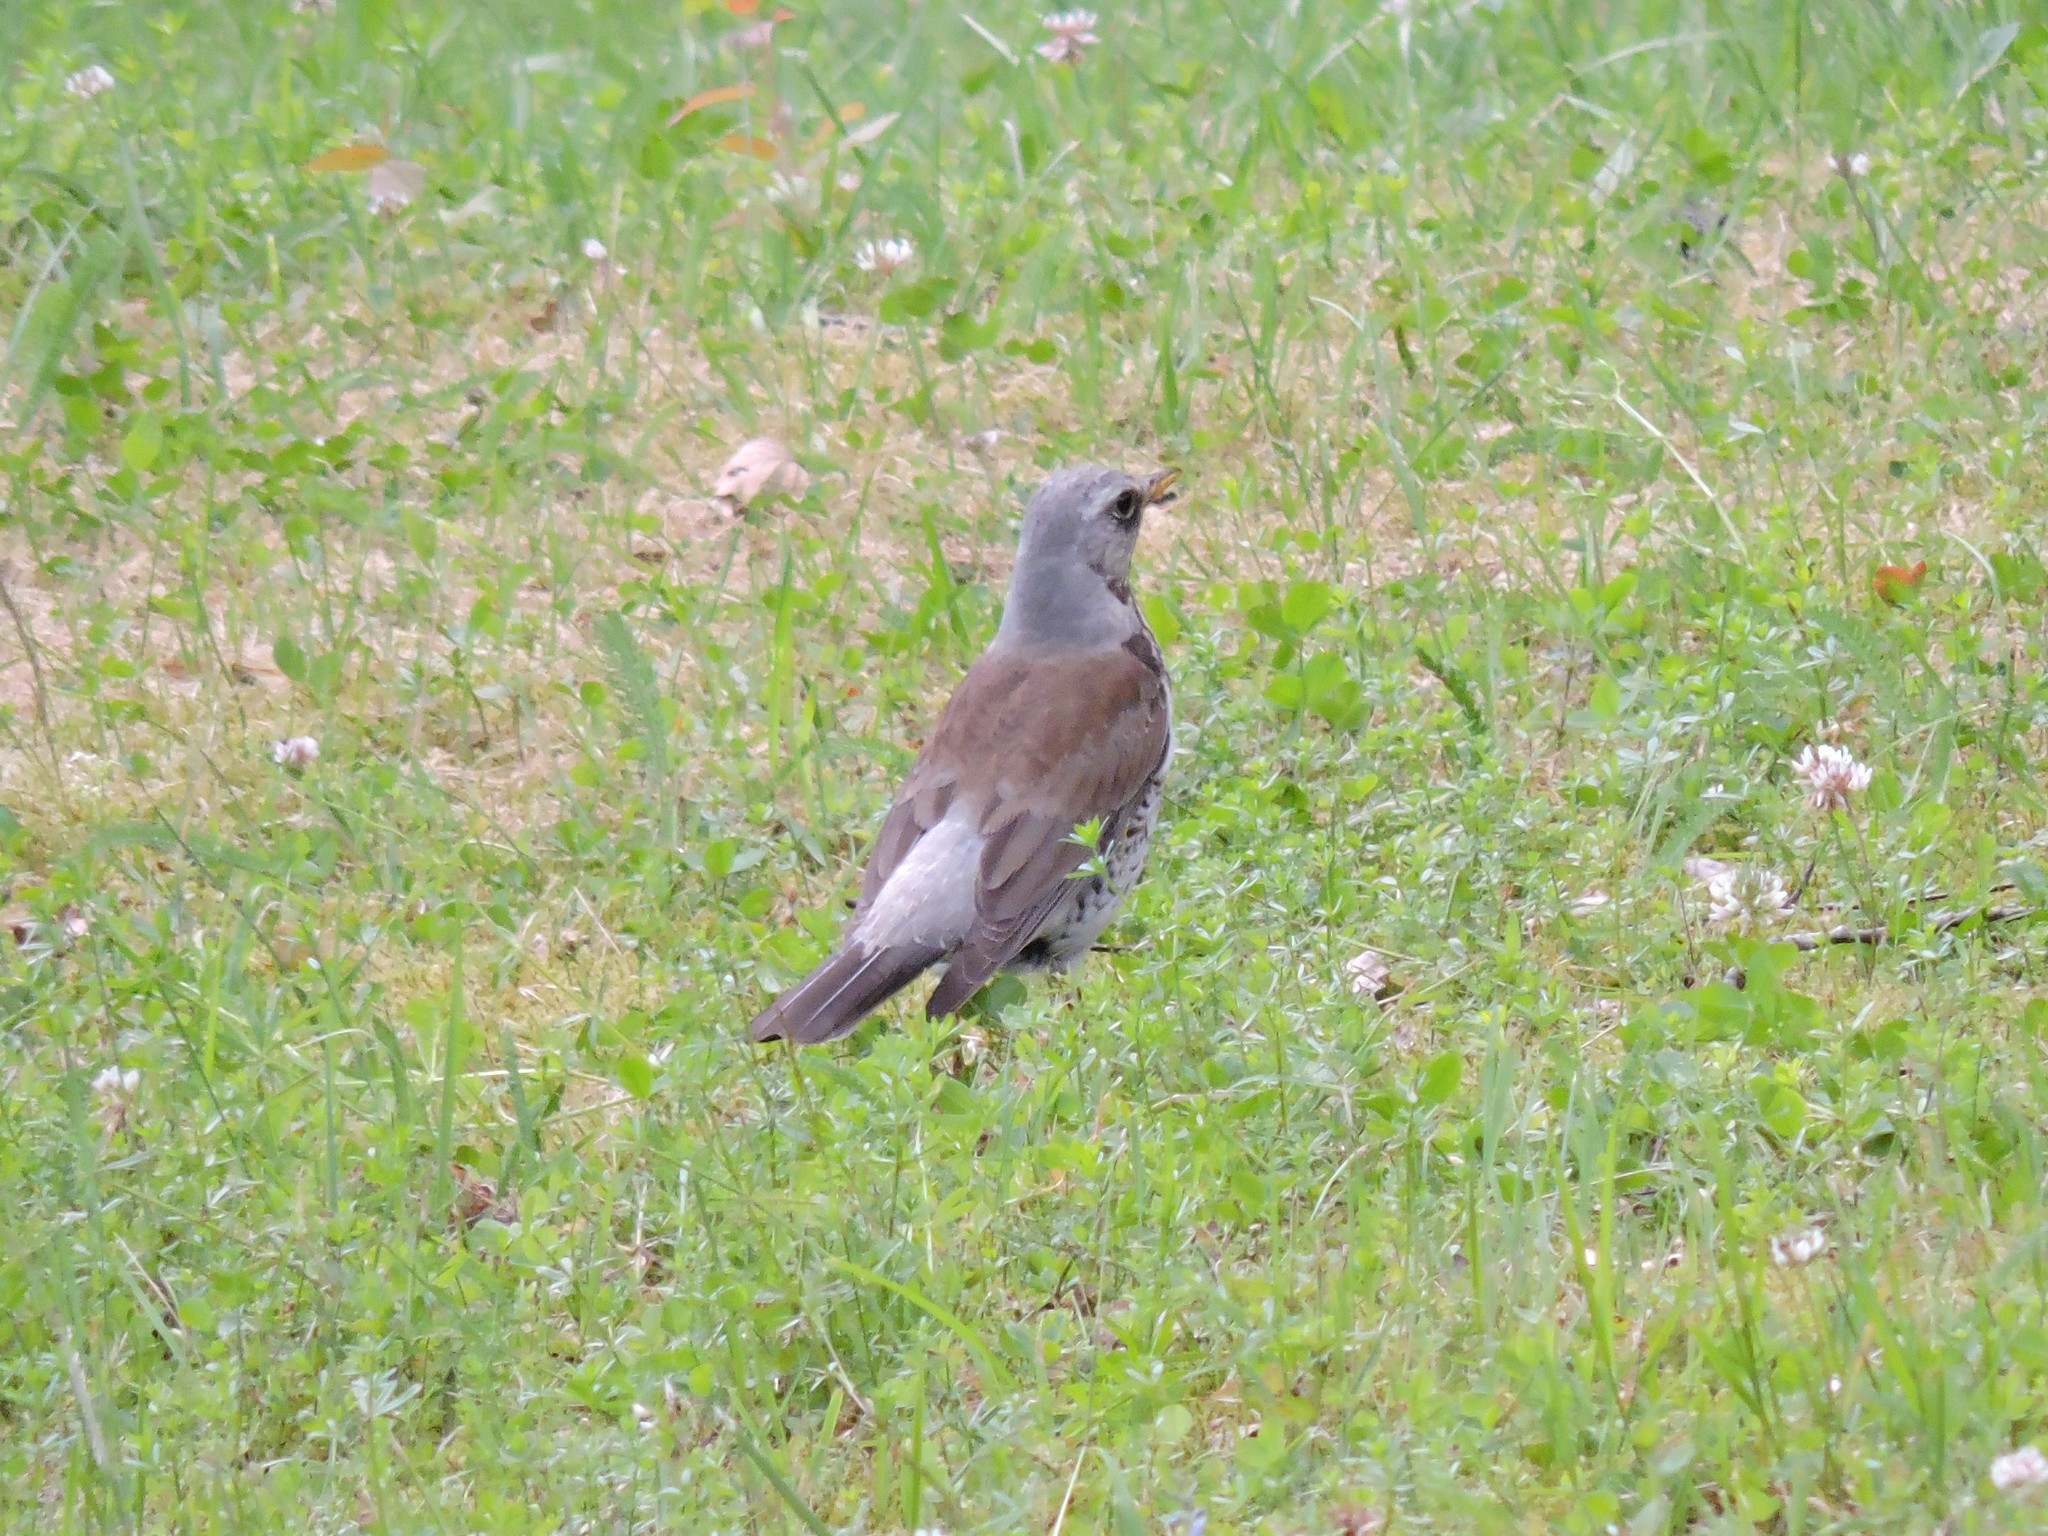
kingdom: Animalia
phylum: Chordata
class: Aves
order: Passeriformes
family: Turdidae
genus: Turdus
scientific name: Turdus pilaris
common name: Fieldfare
